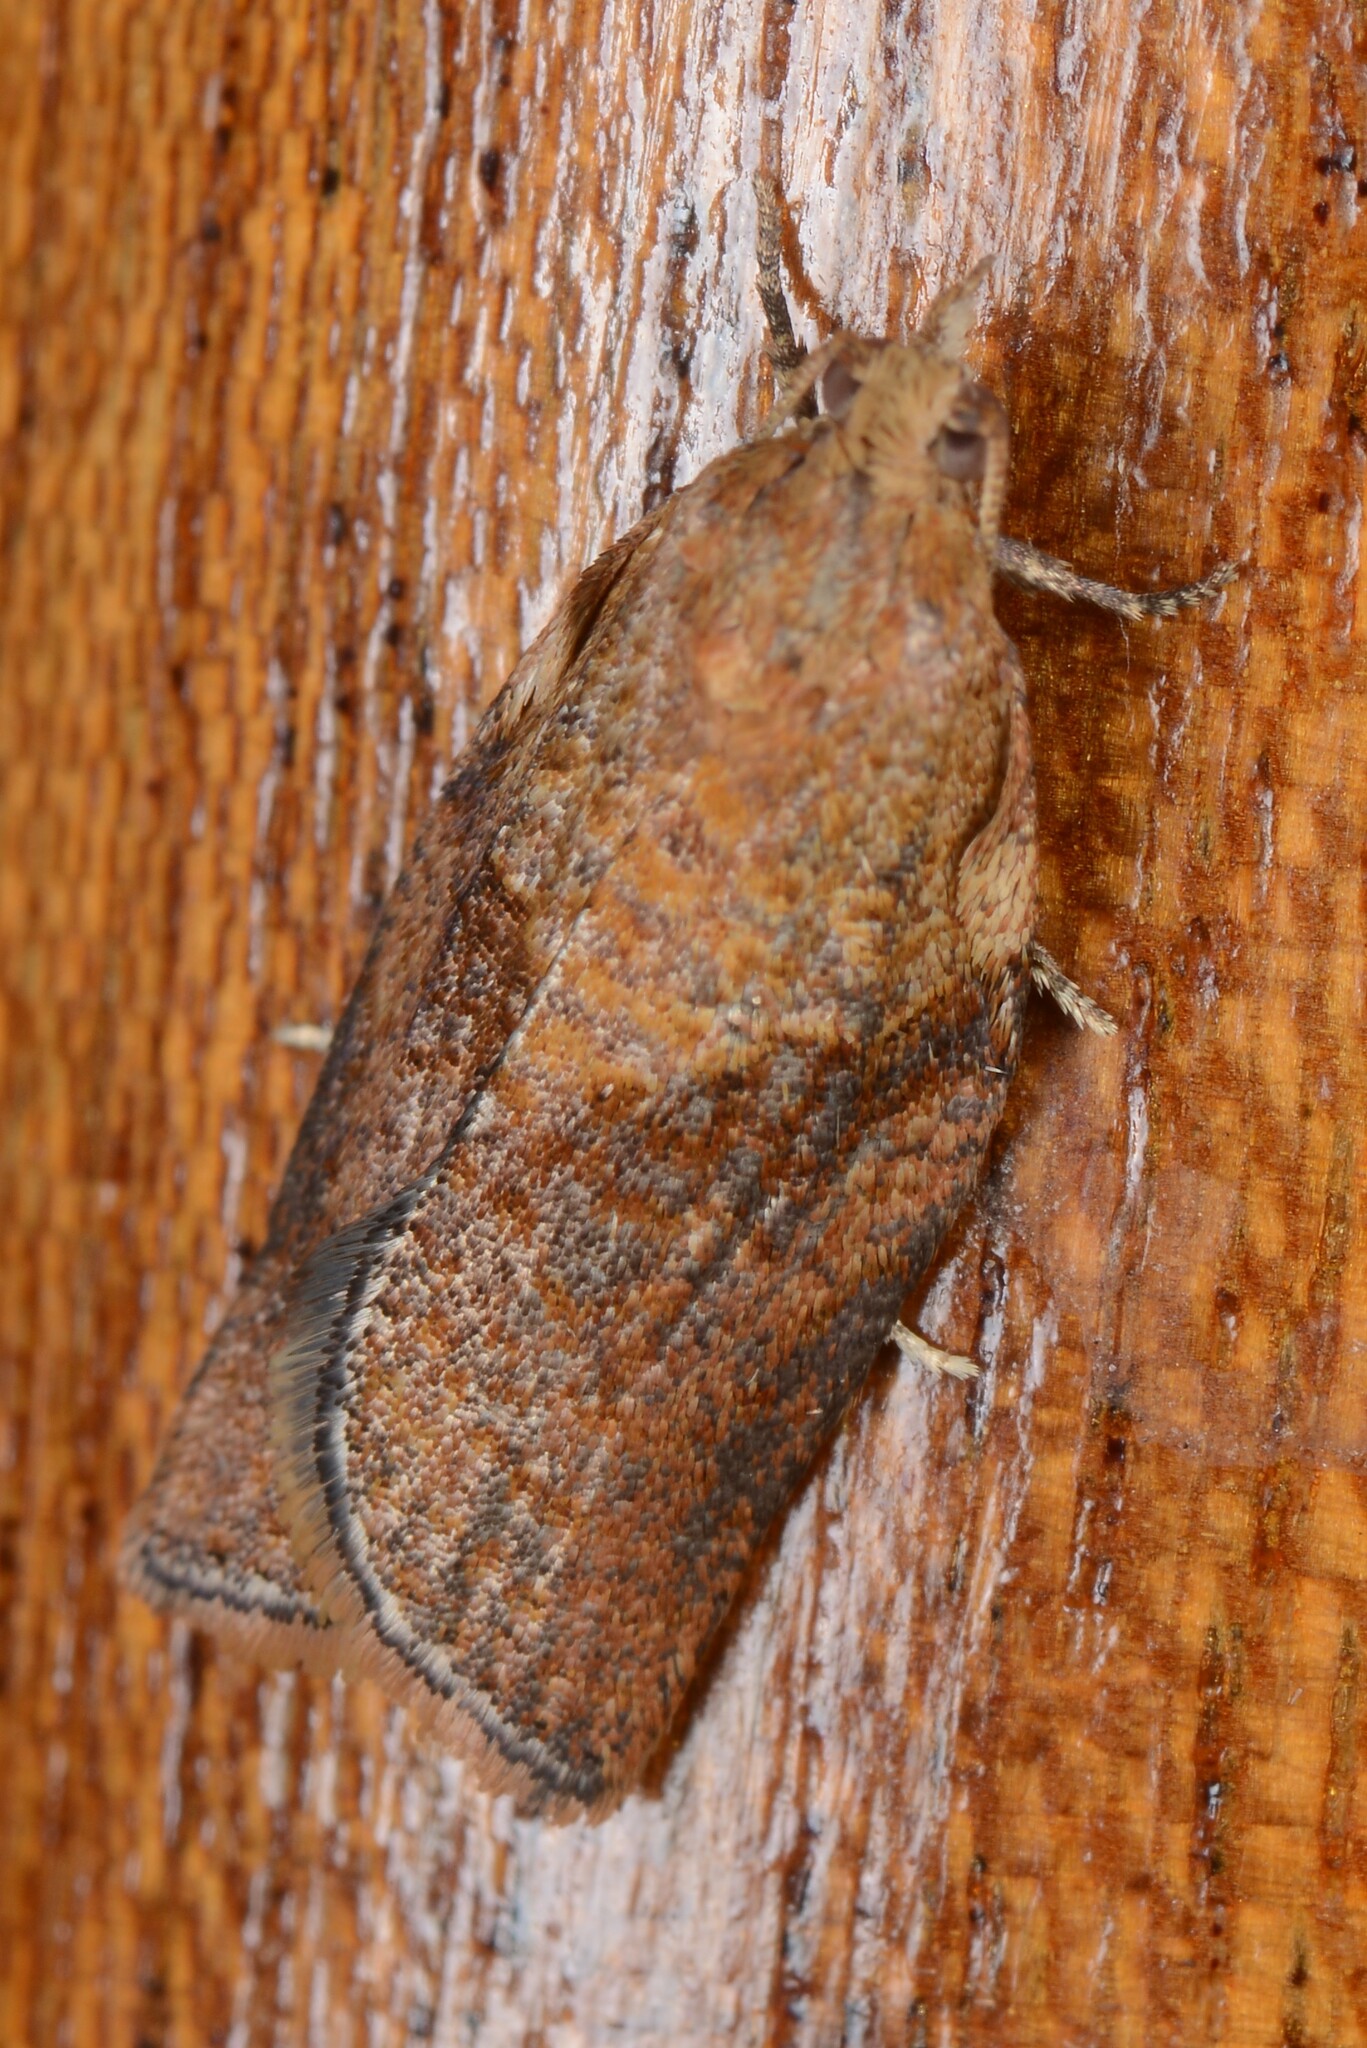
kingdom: Animalia
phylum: Arthropoda
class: Insecta
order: Lepidoptera
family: Tortricidae
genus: Epiphyas
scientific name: Epiphyas postvittana
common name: Light brown apple moth
